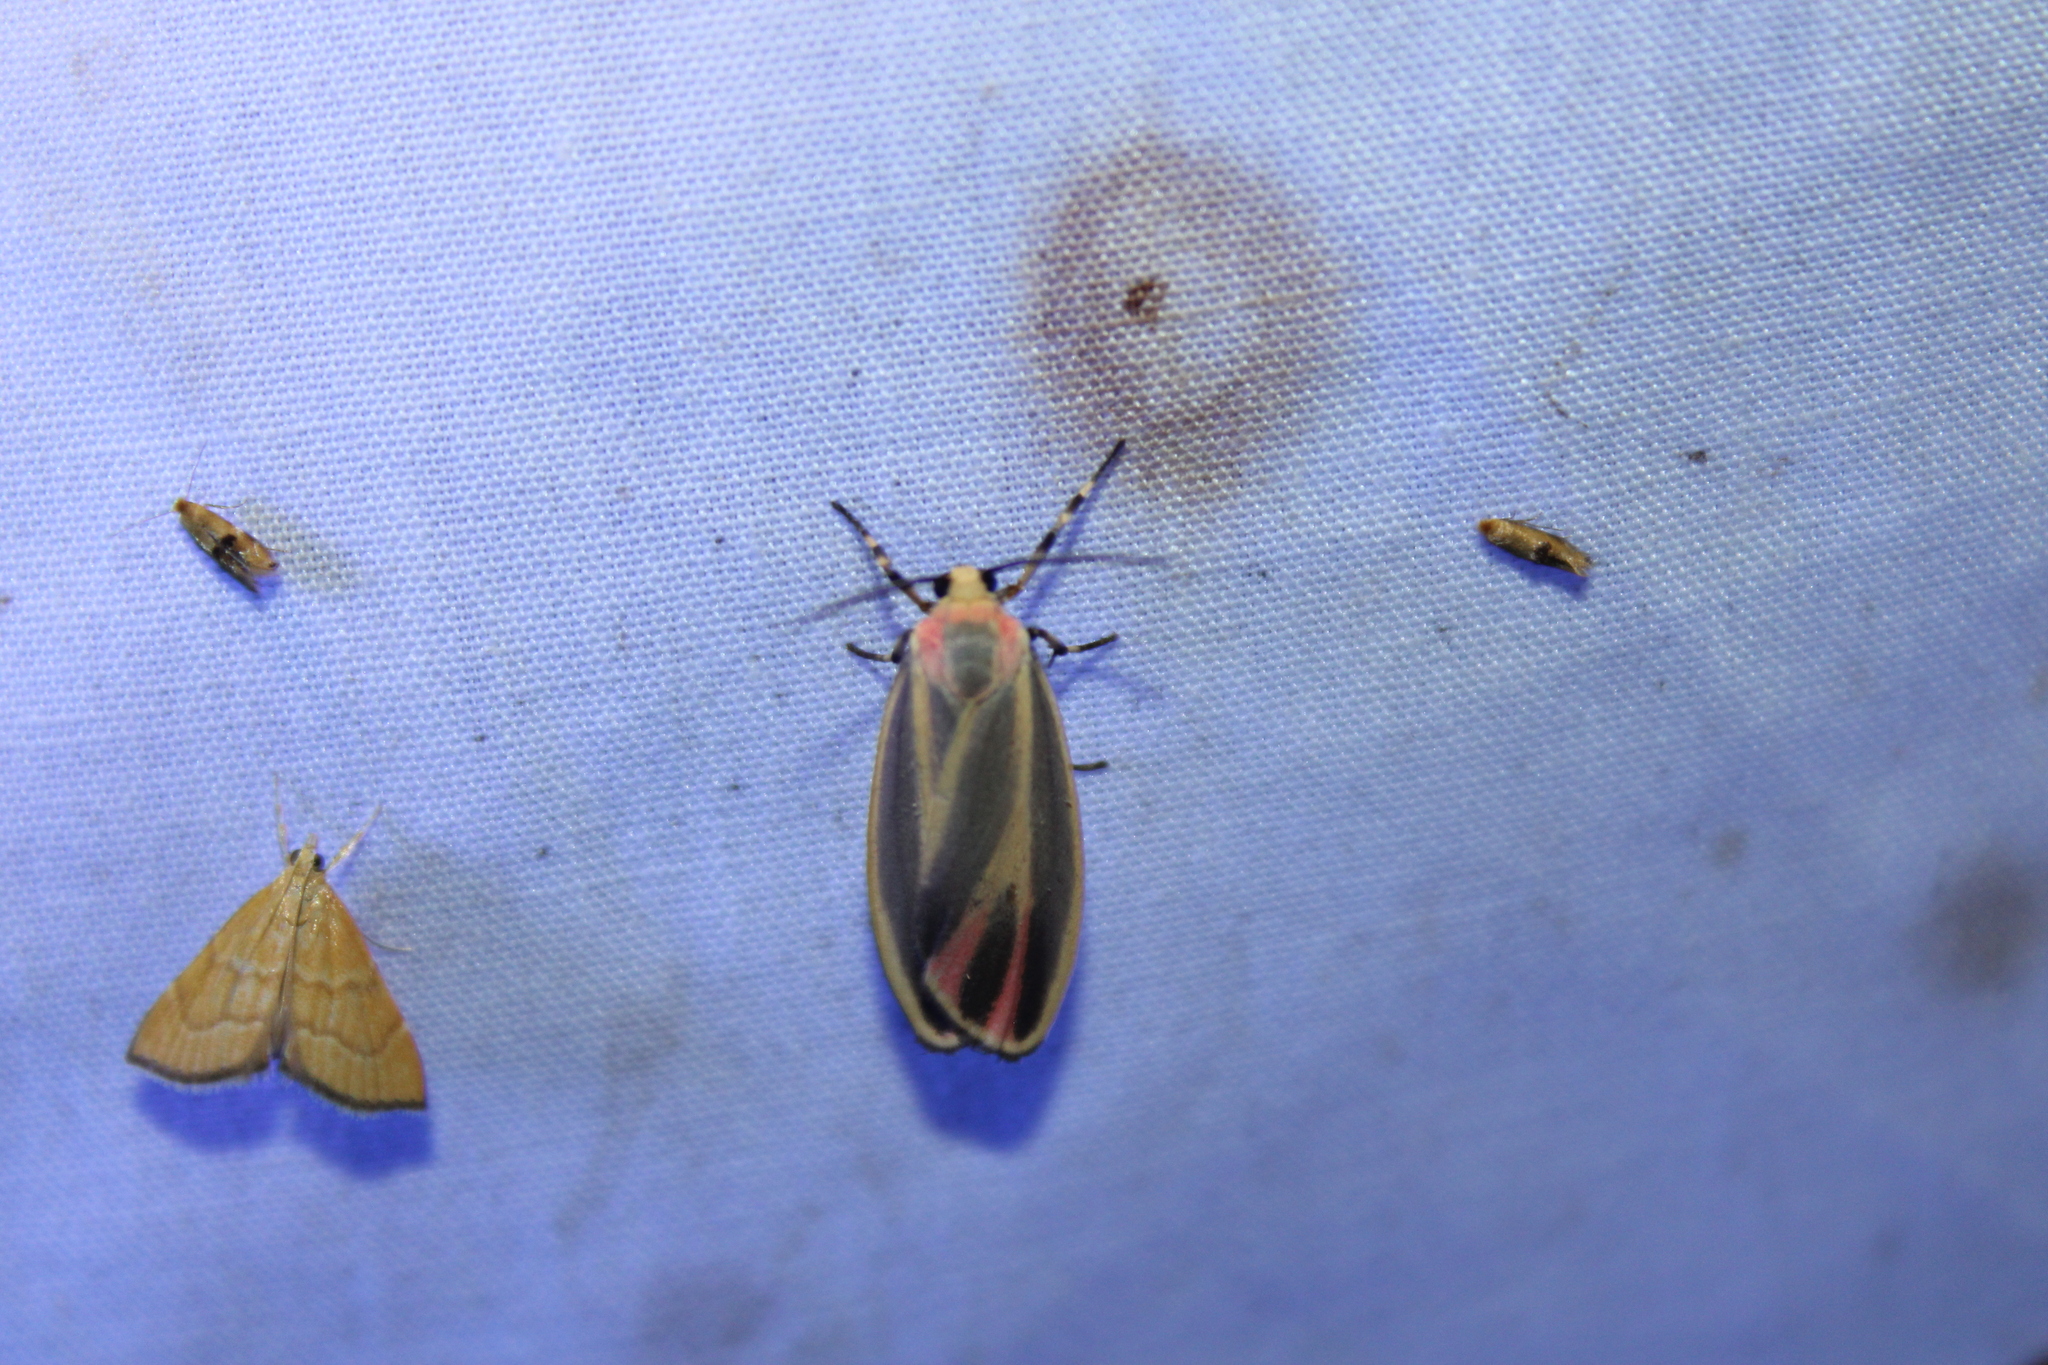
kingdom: Animalia
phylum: Arthropoda
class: Insecta
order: Lepidoptera
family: Erebidae
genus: Hypoprepia
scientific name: Hypoprepia fucosa
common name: Painted lichen moth
